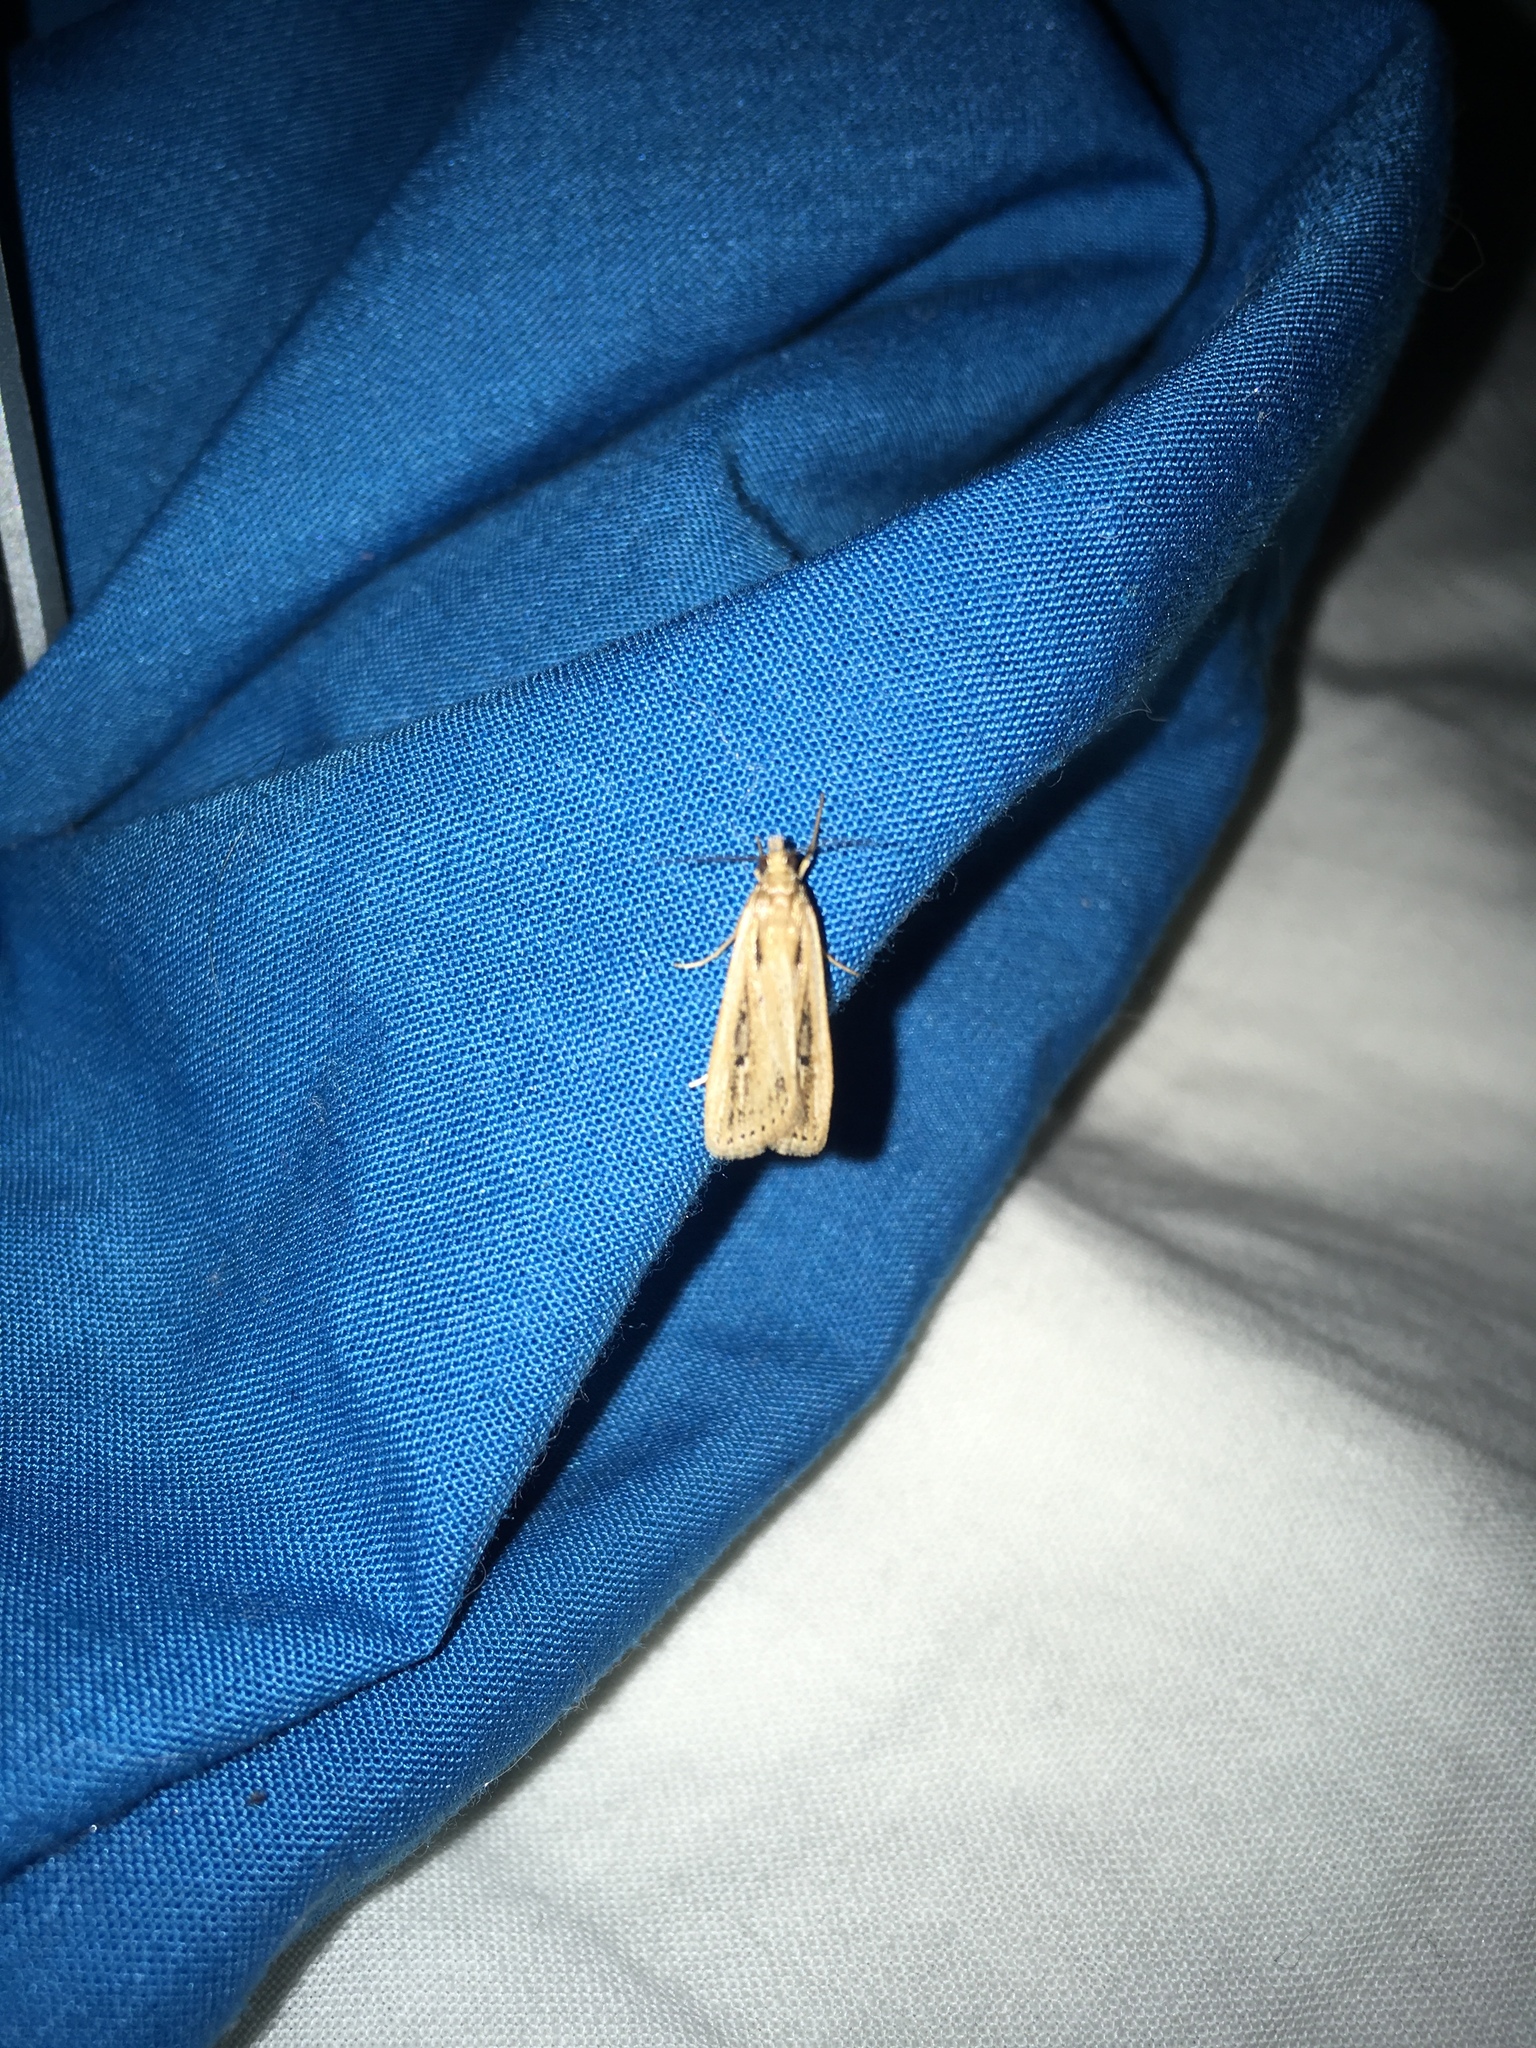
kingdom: Animalia
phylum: Arthropoda
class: Insecta
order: Lepidoptera
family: Crambidae
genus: Eudonia
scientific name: Eudonia sabulosella
